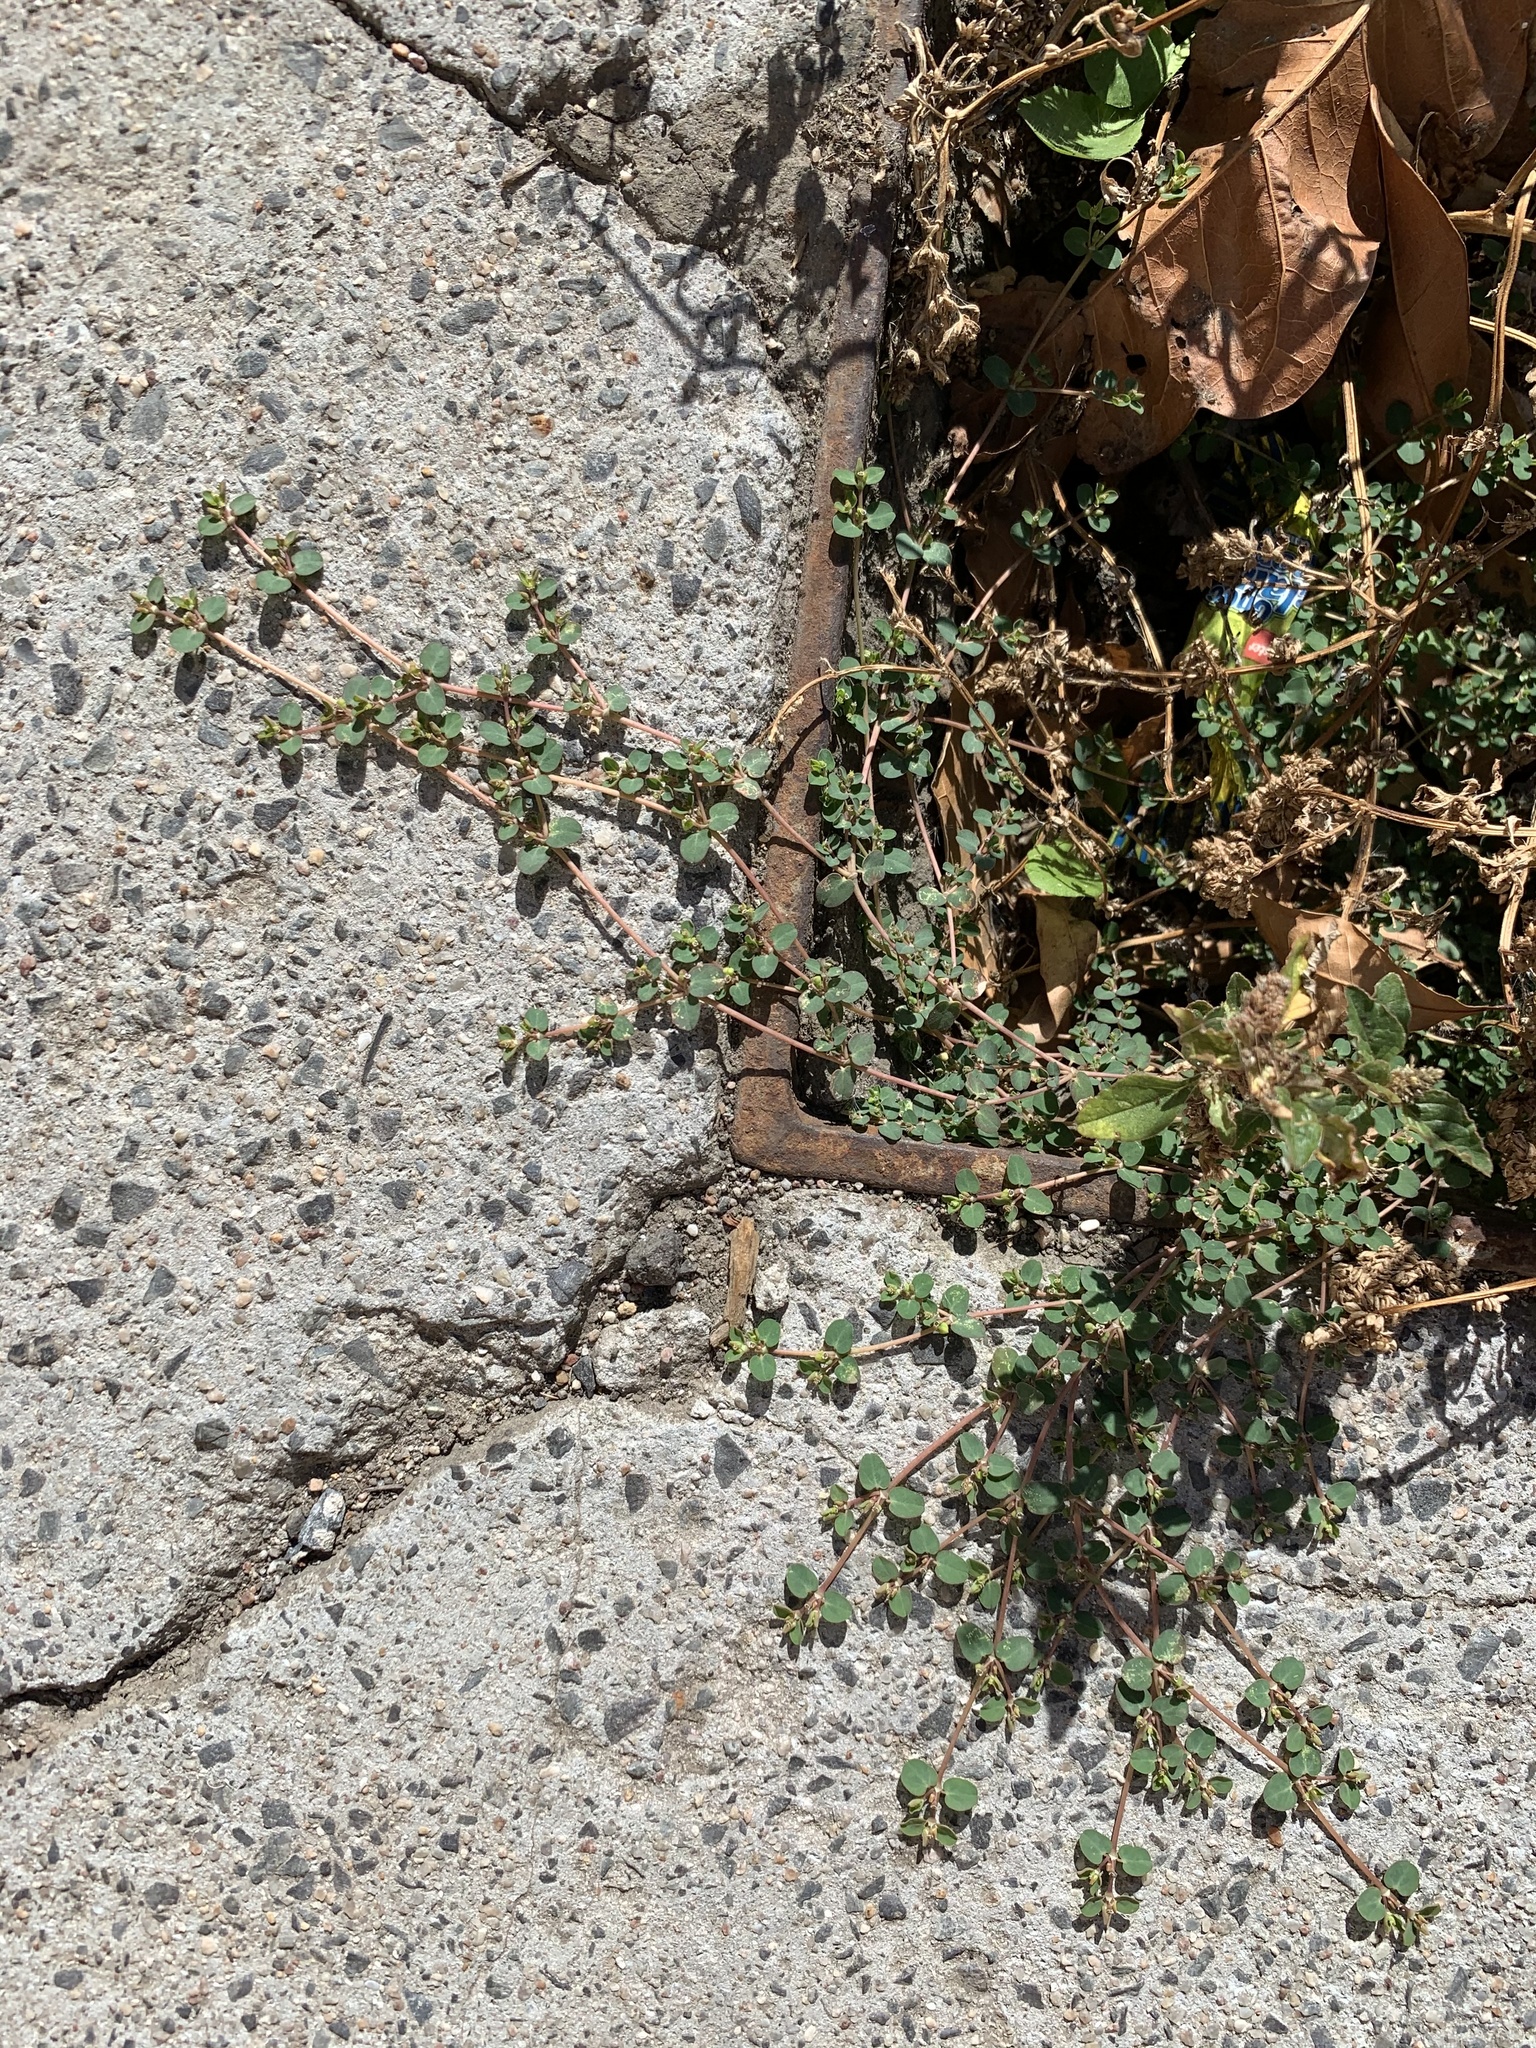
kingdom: Plantae
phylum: Tracheophyta
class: Magnoliopsida
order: Malpighiales
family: Euphorbiaceae
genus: Euphorbia
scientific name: Euphorbia serpens
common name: Matted sandmat
